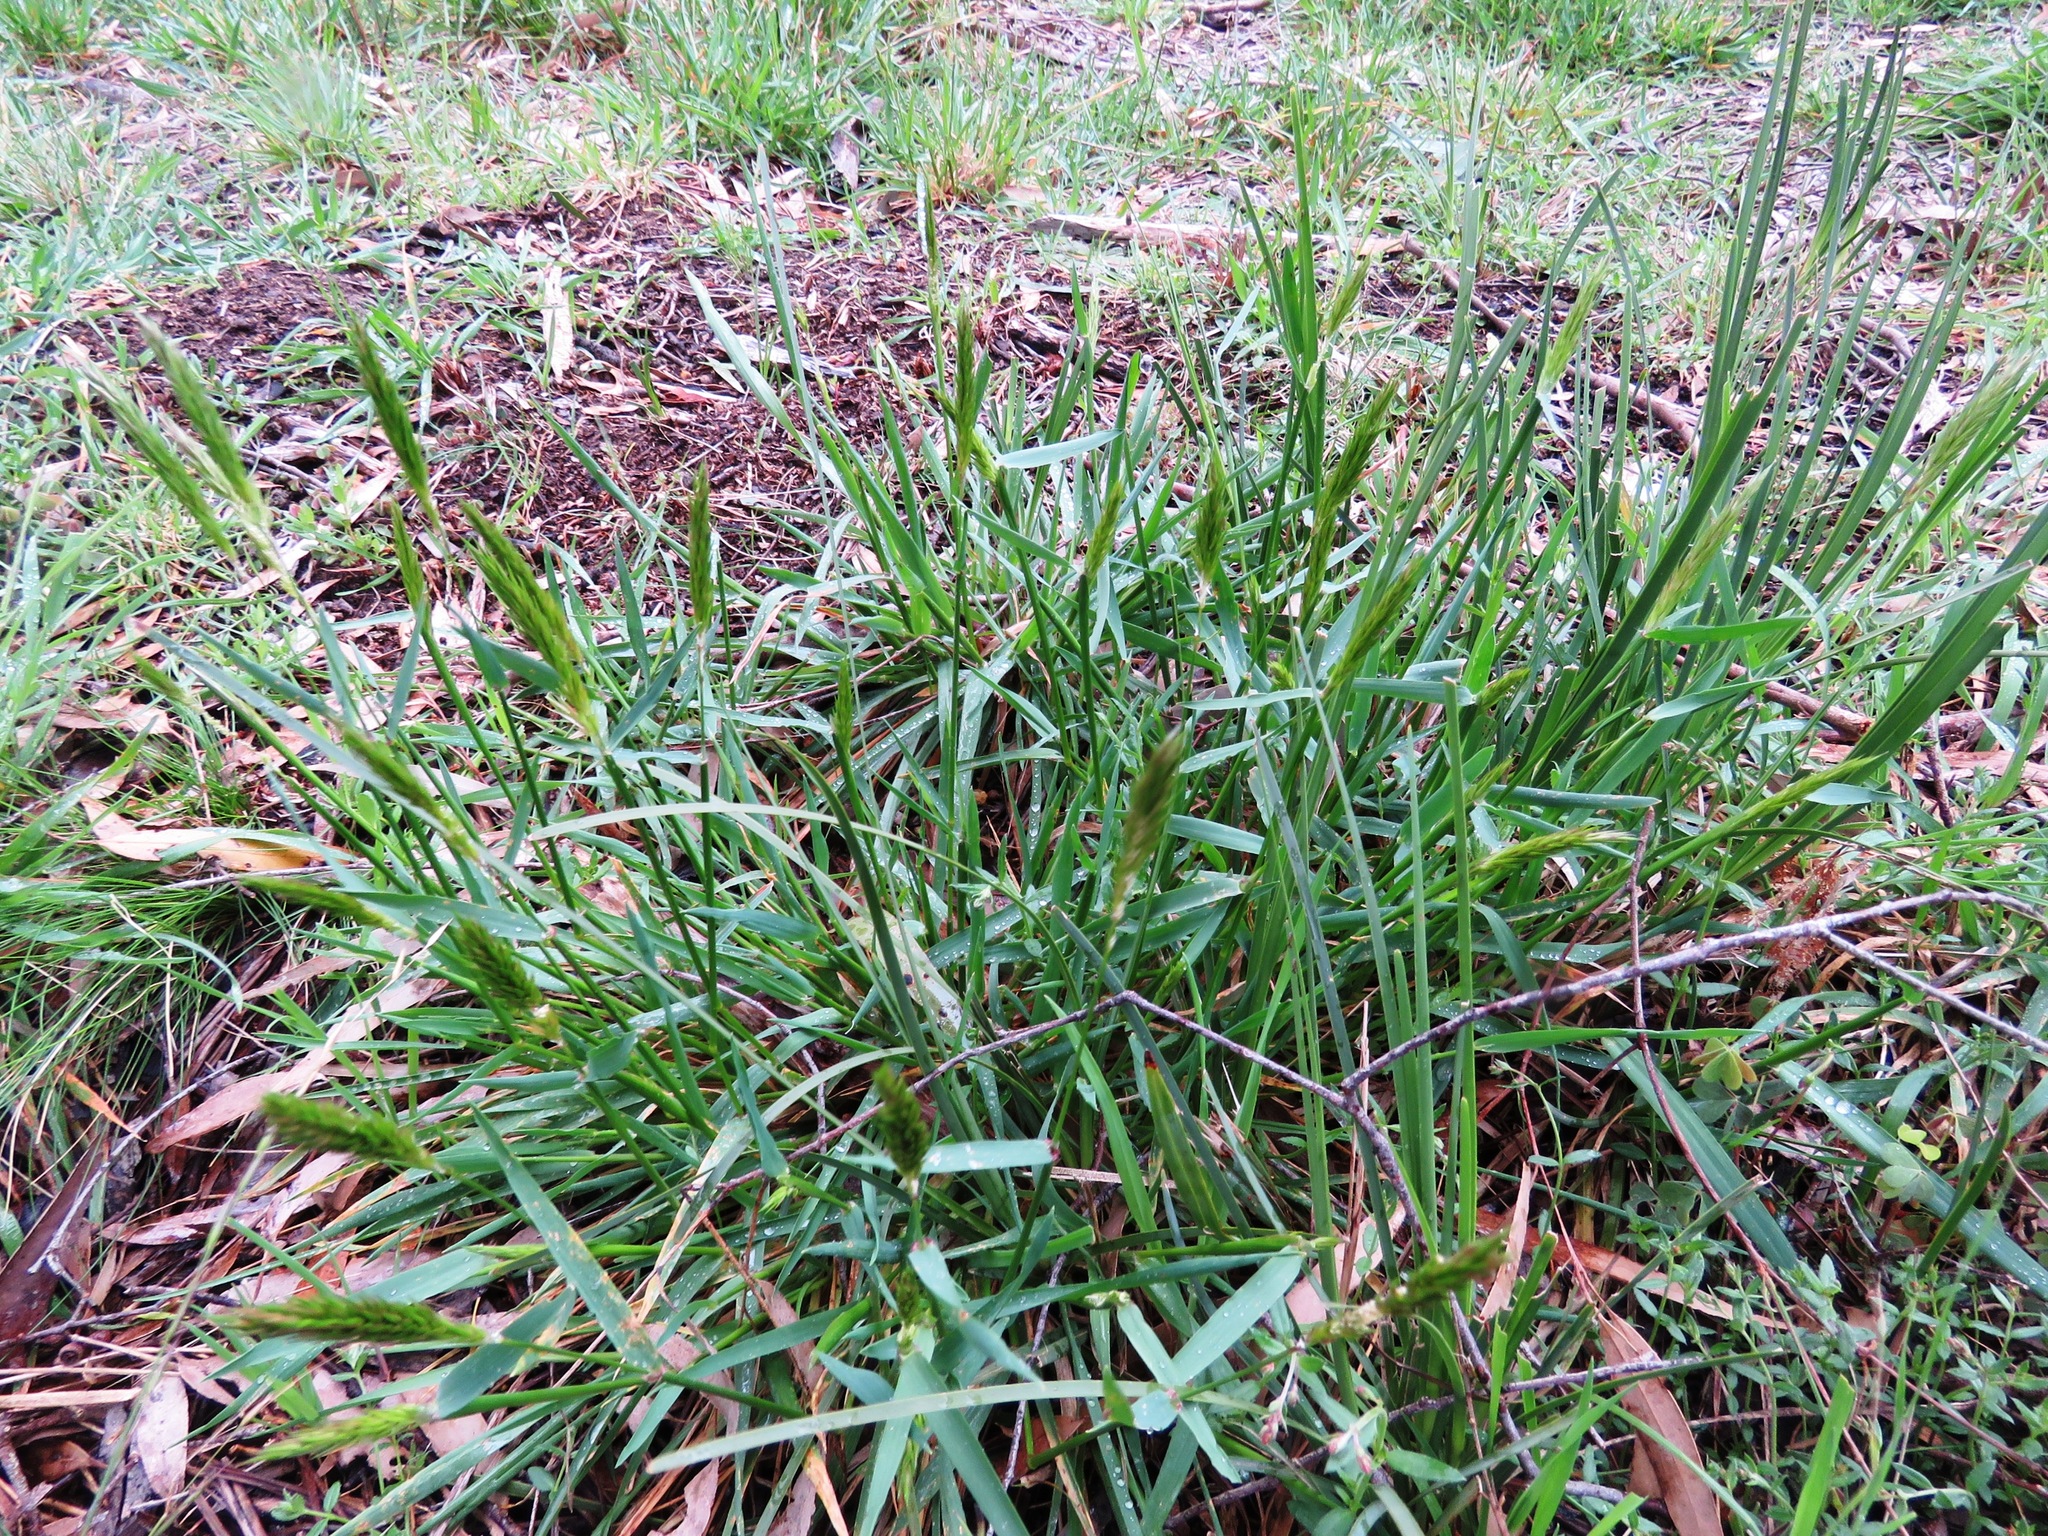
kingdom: Plantae
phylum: Tracheophyta
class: Liliopsida
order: Poales
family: Poaceae
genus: Anthoxanthum
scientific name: Anthoxanthum odoratum
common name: Sweet vernalgrass
